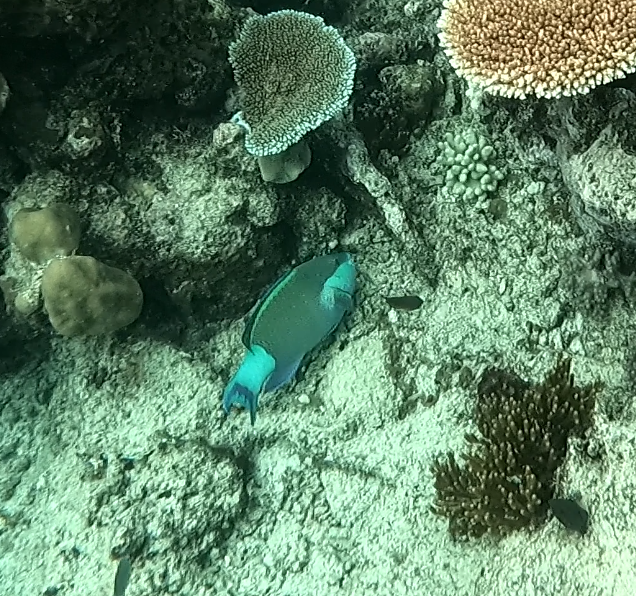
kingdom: Animalia
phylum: Chordata
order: Perciformes
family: Scaridae
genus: Scarus
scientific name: Scarus frenatus
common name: Bridled parrotfish
